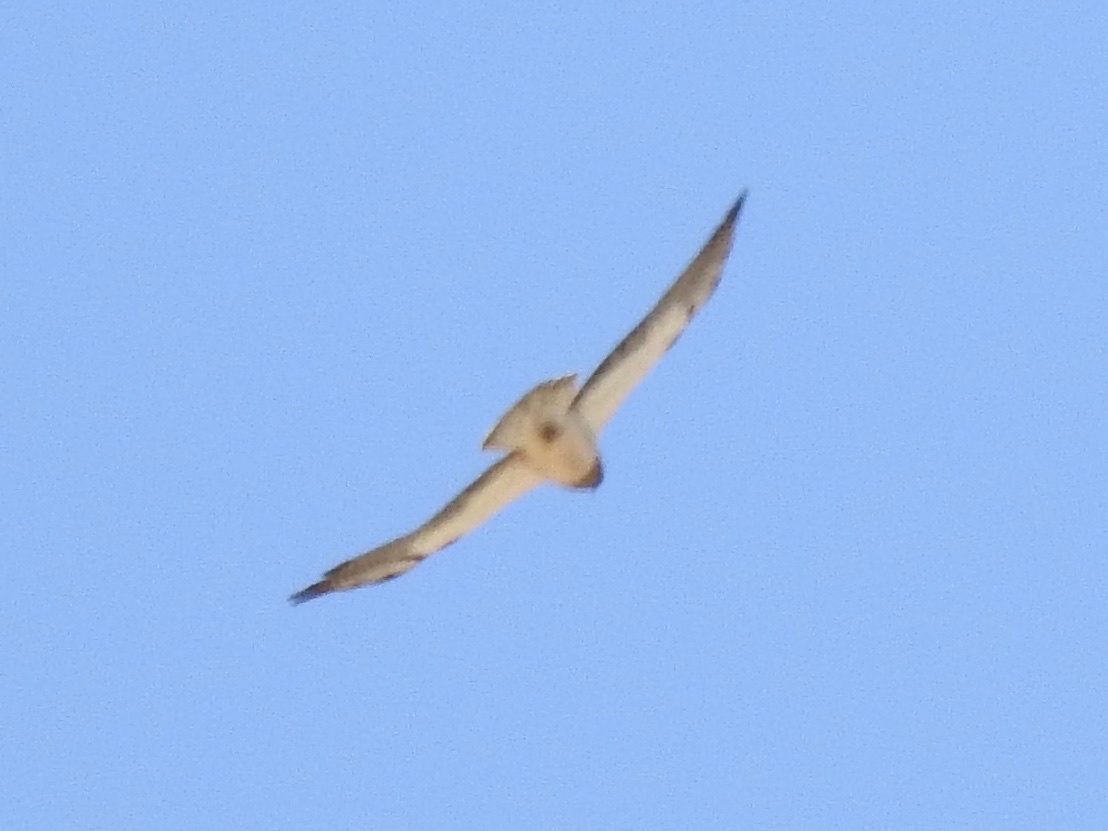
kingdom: Animalia
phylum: Chordata
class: Aves
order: Accipitriformes
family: Accipitridae
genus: Buteo
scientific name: Buteo swainsoni
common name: Swainson's hawk
